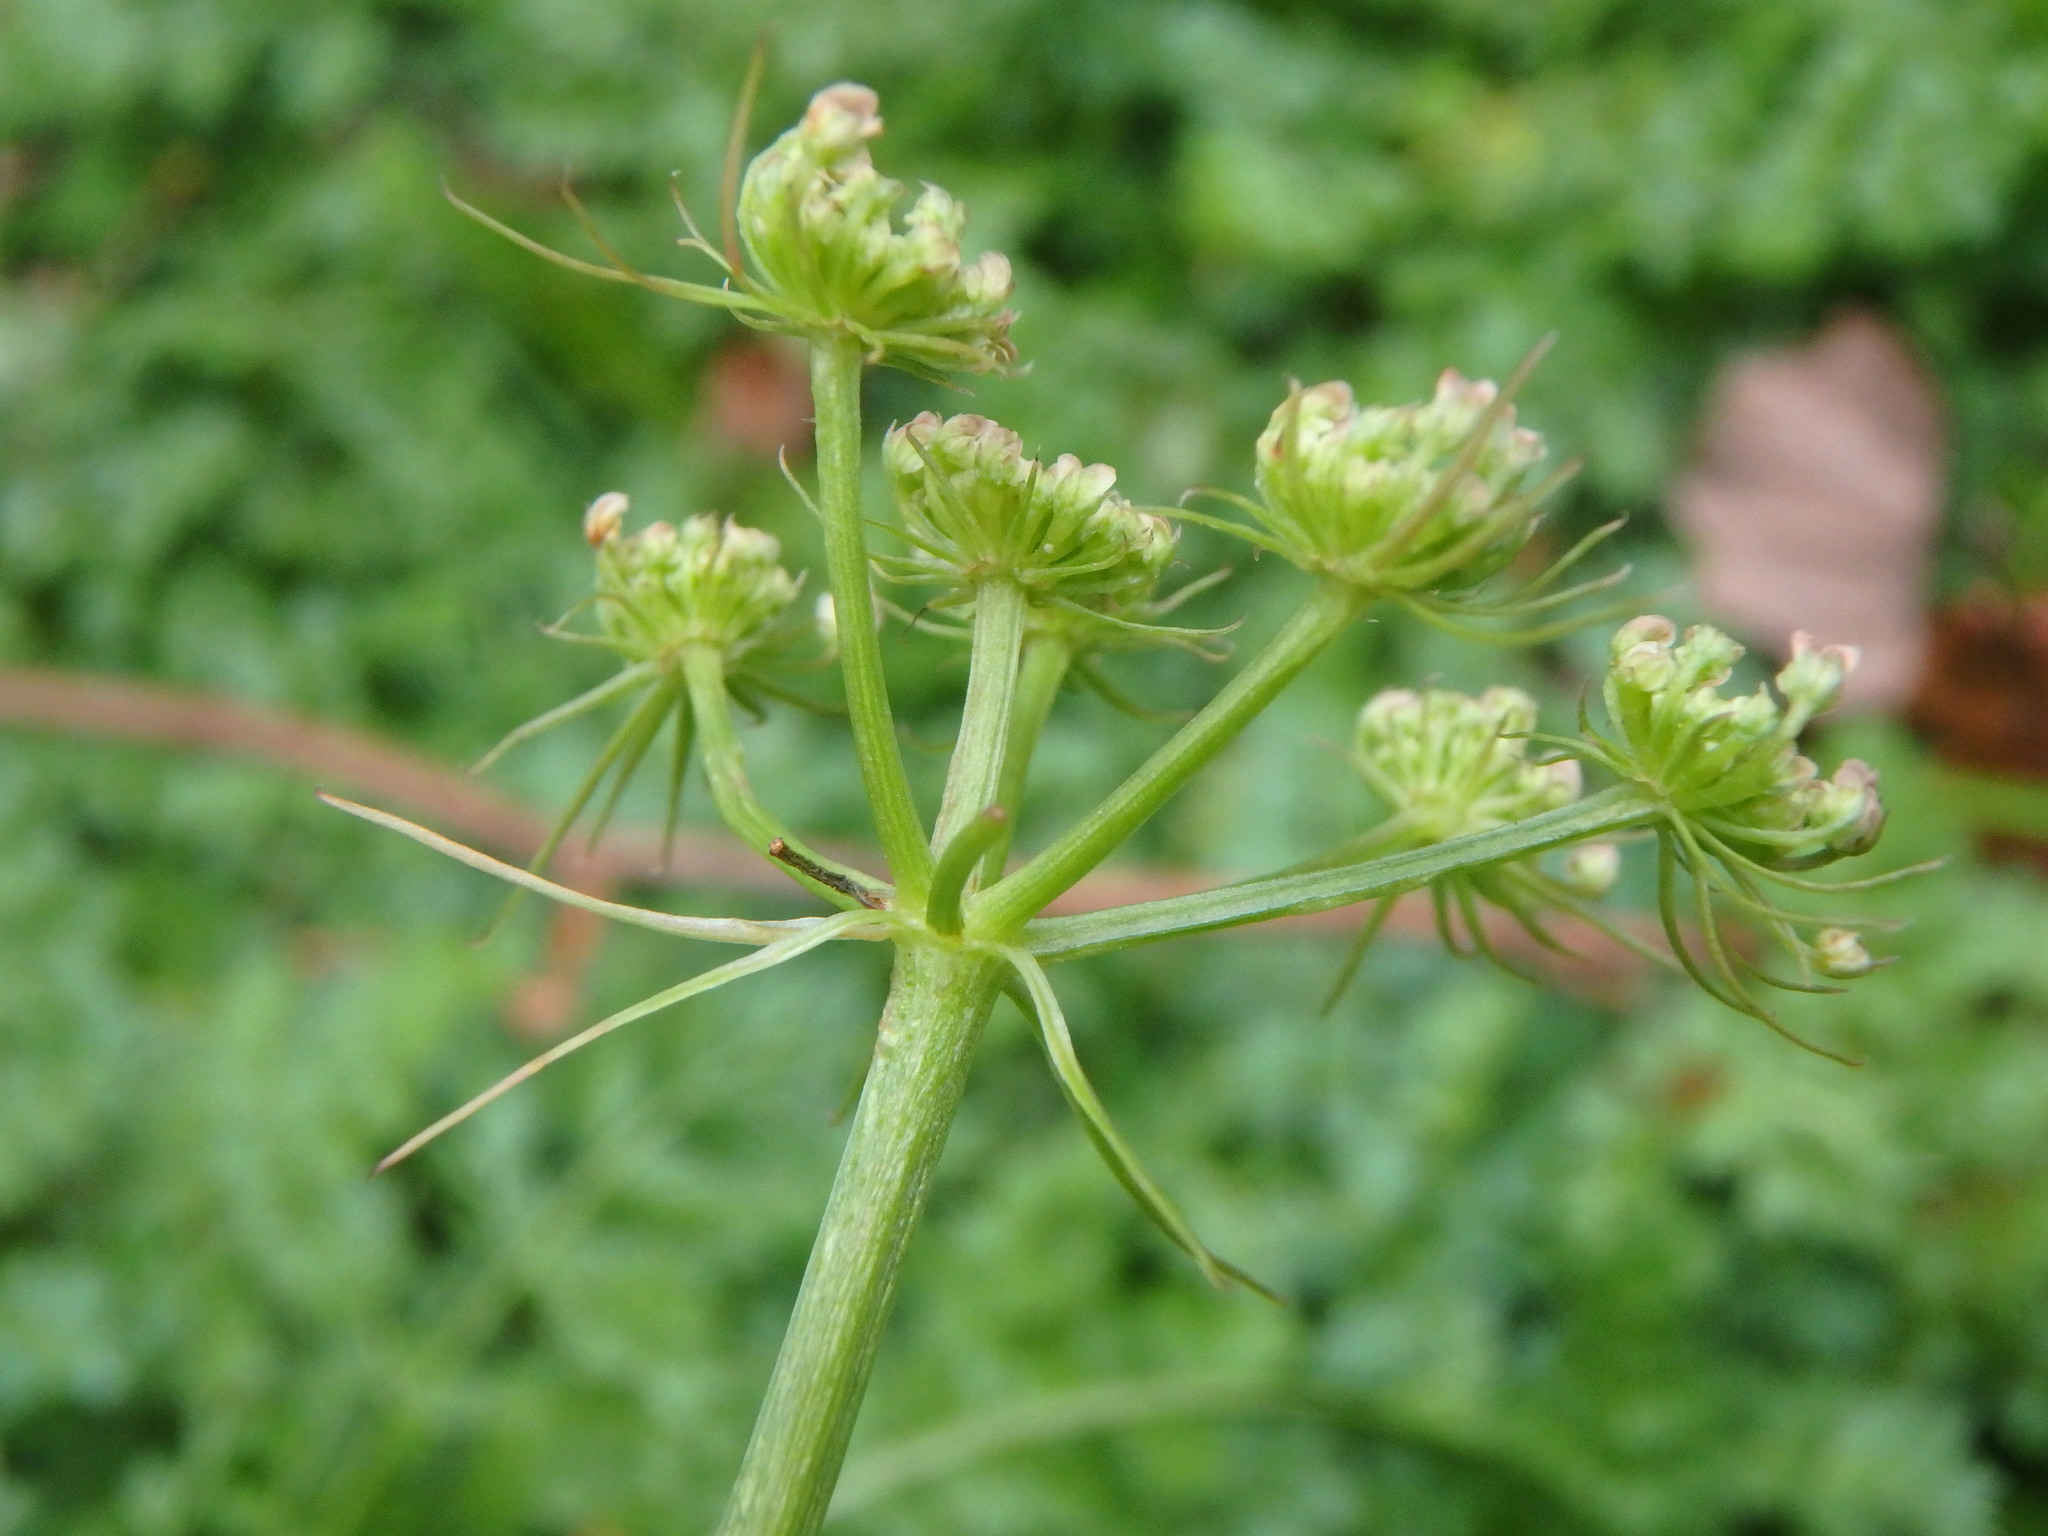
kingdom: Plantae
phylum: Tracheophyta
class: Magnoliopsida
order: Apiales
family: Apiaceae
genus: Oenanthe
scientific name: Oenanthe pimpinelloides
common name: Corky-fruited water-dropwort
